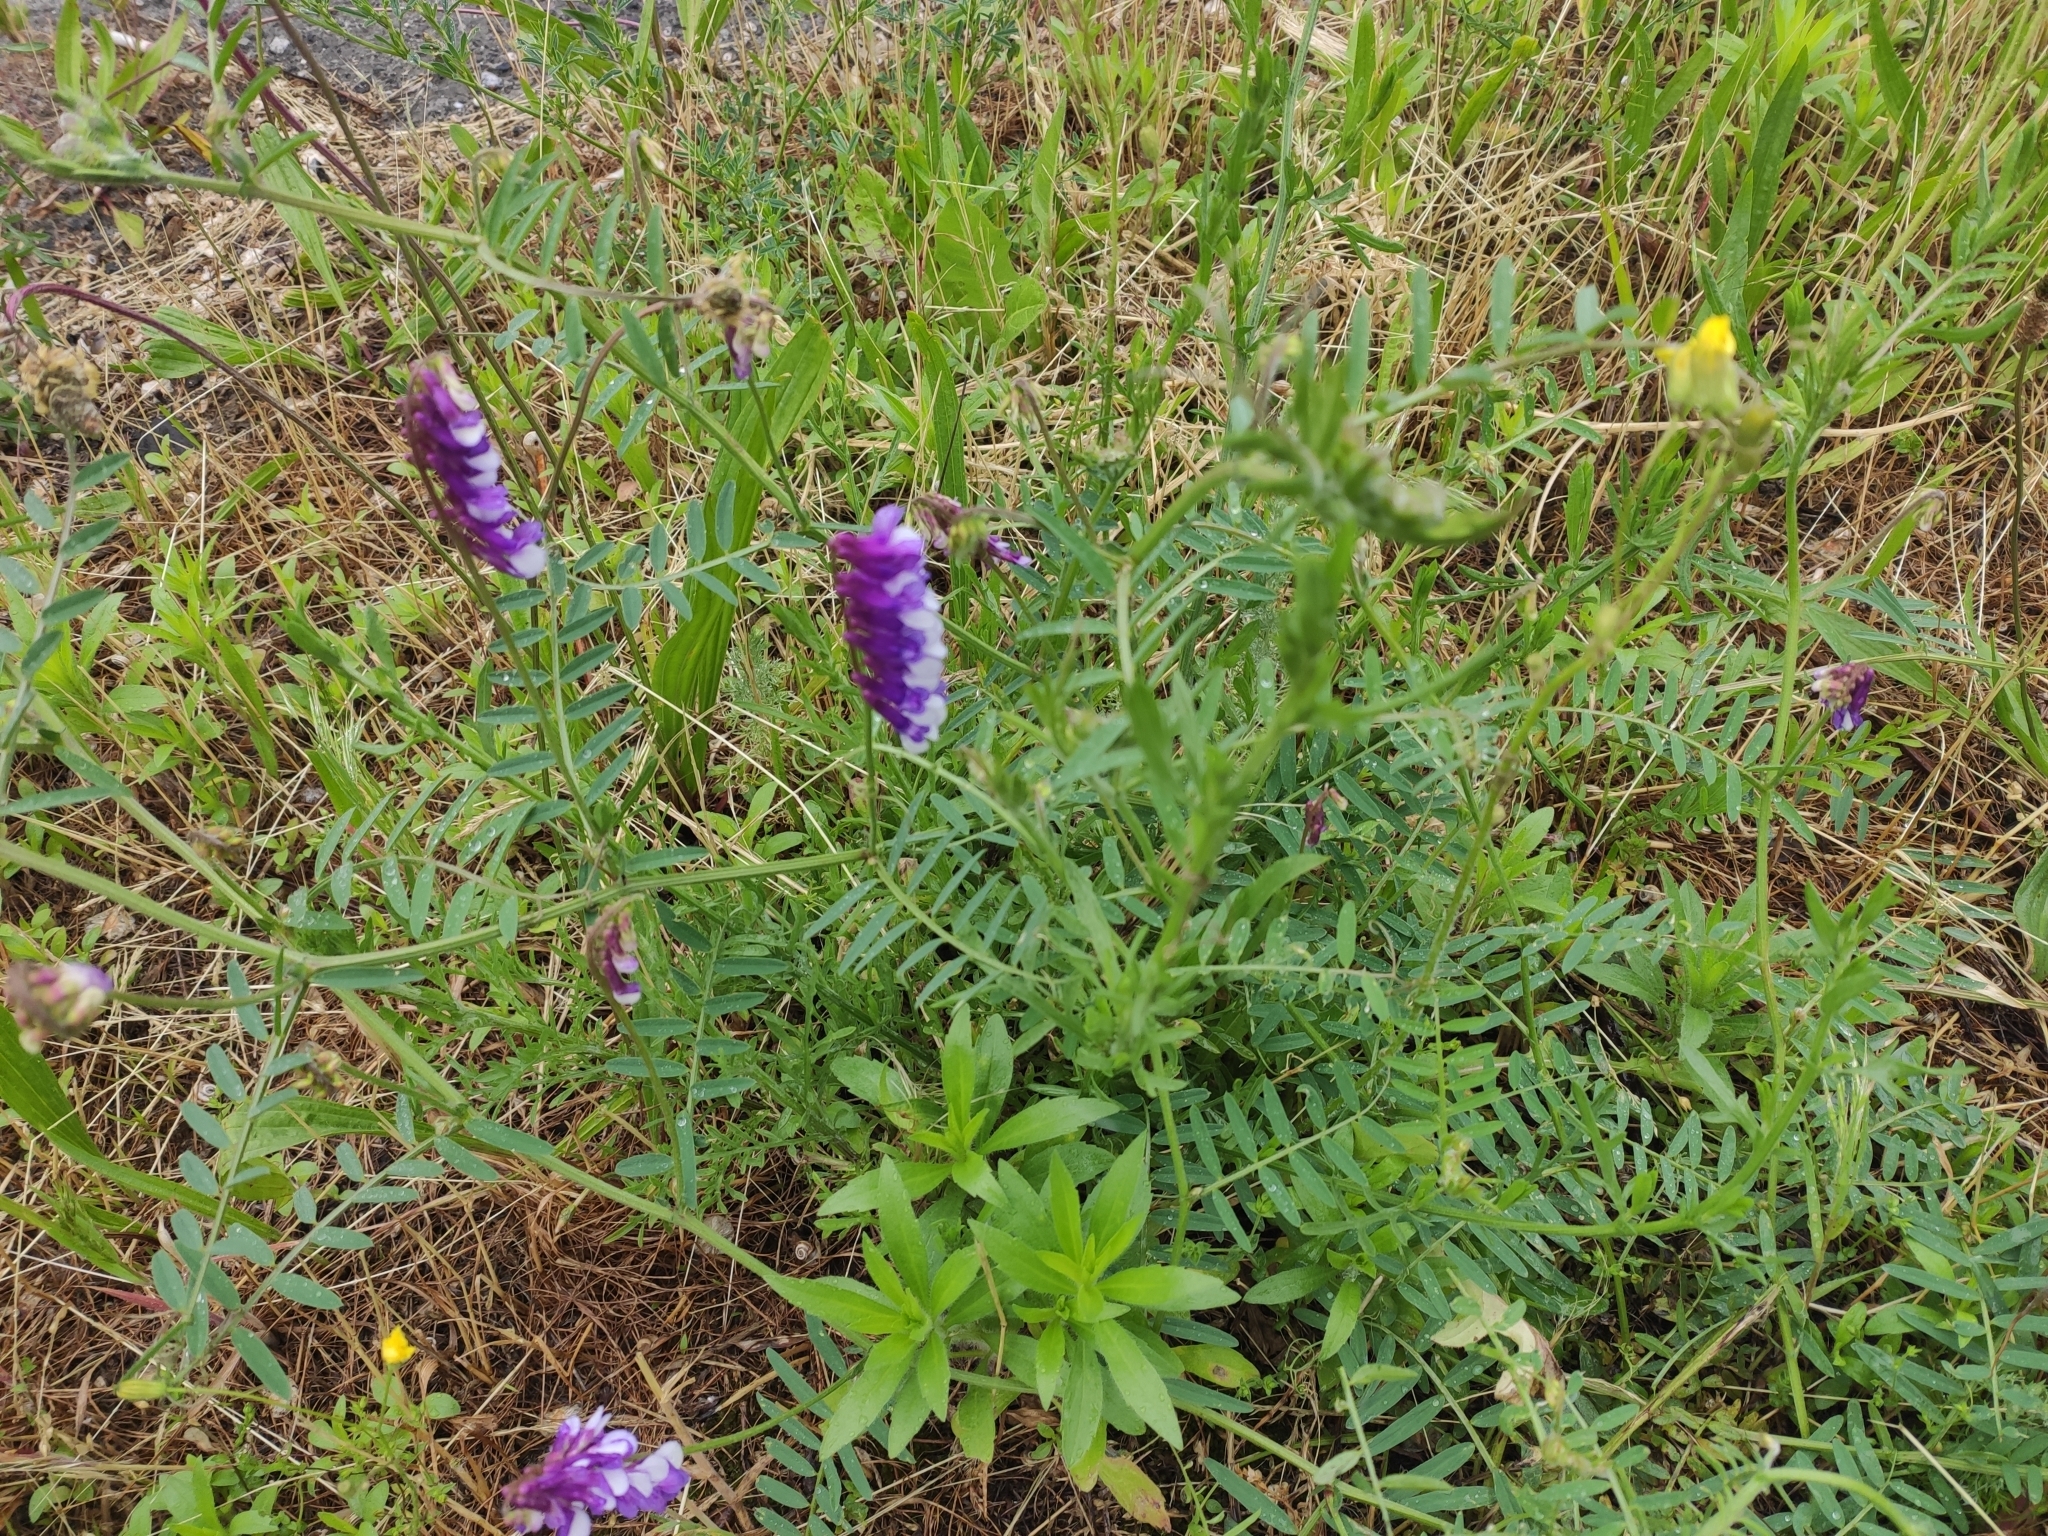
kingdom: Plantae
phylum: Tracheophyta
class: Magnoliopsida
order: Fabales
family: Fabaceae
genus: Vicia
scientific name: Vicia villosa
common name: Fodder vetch
